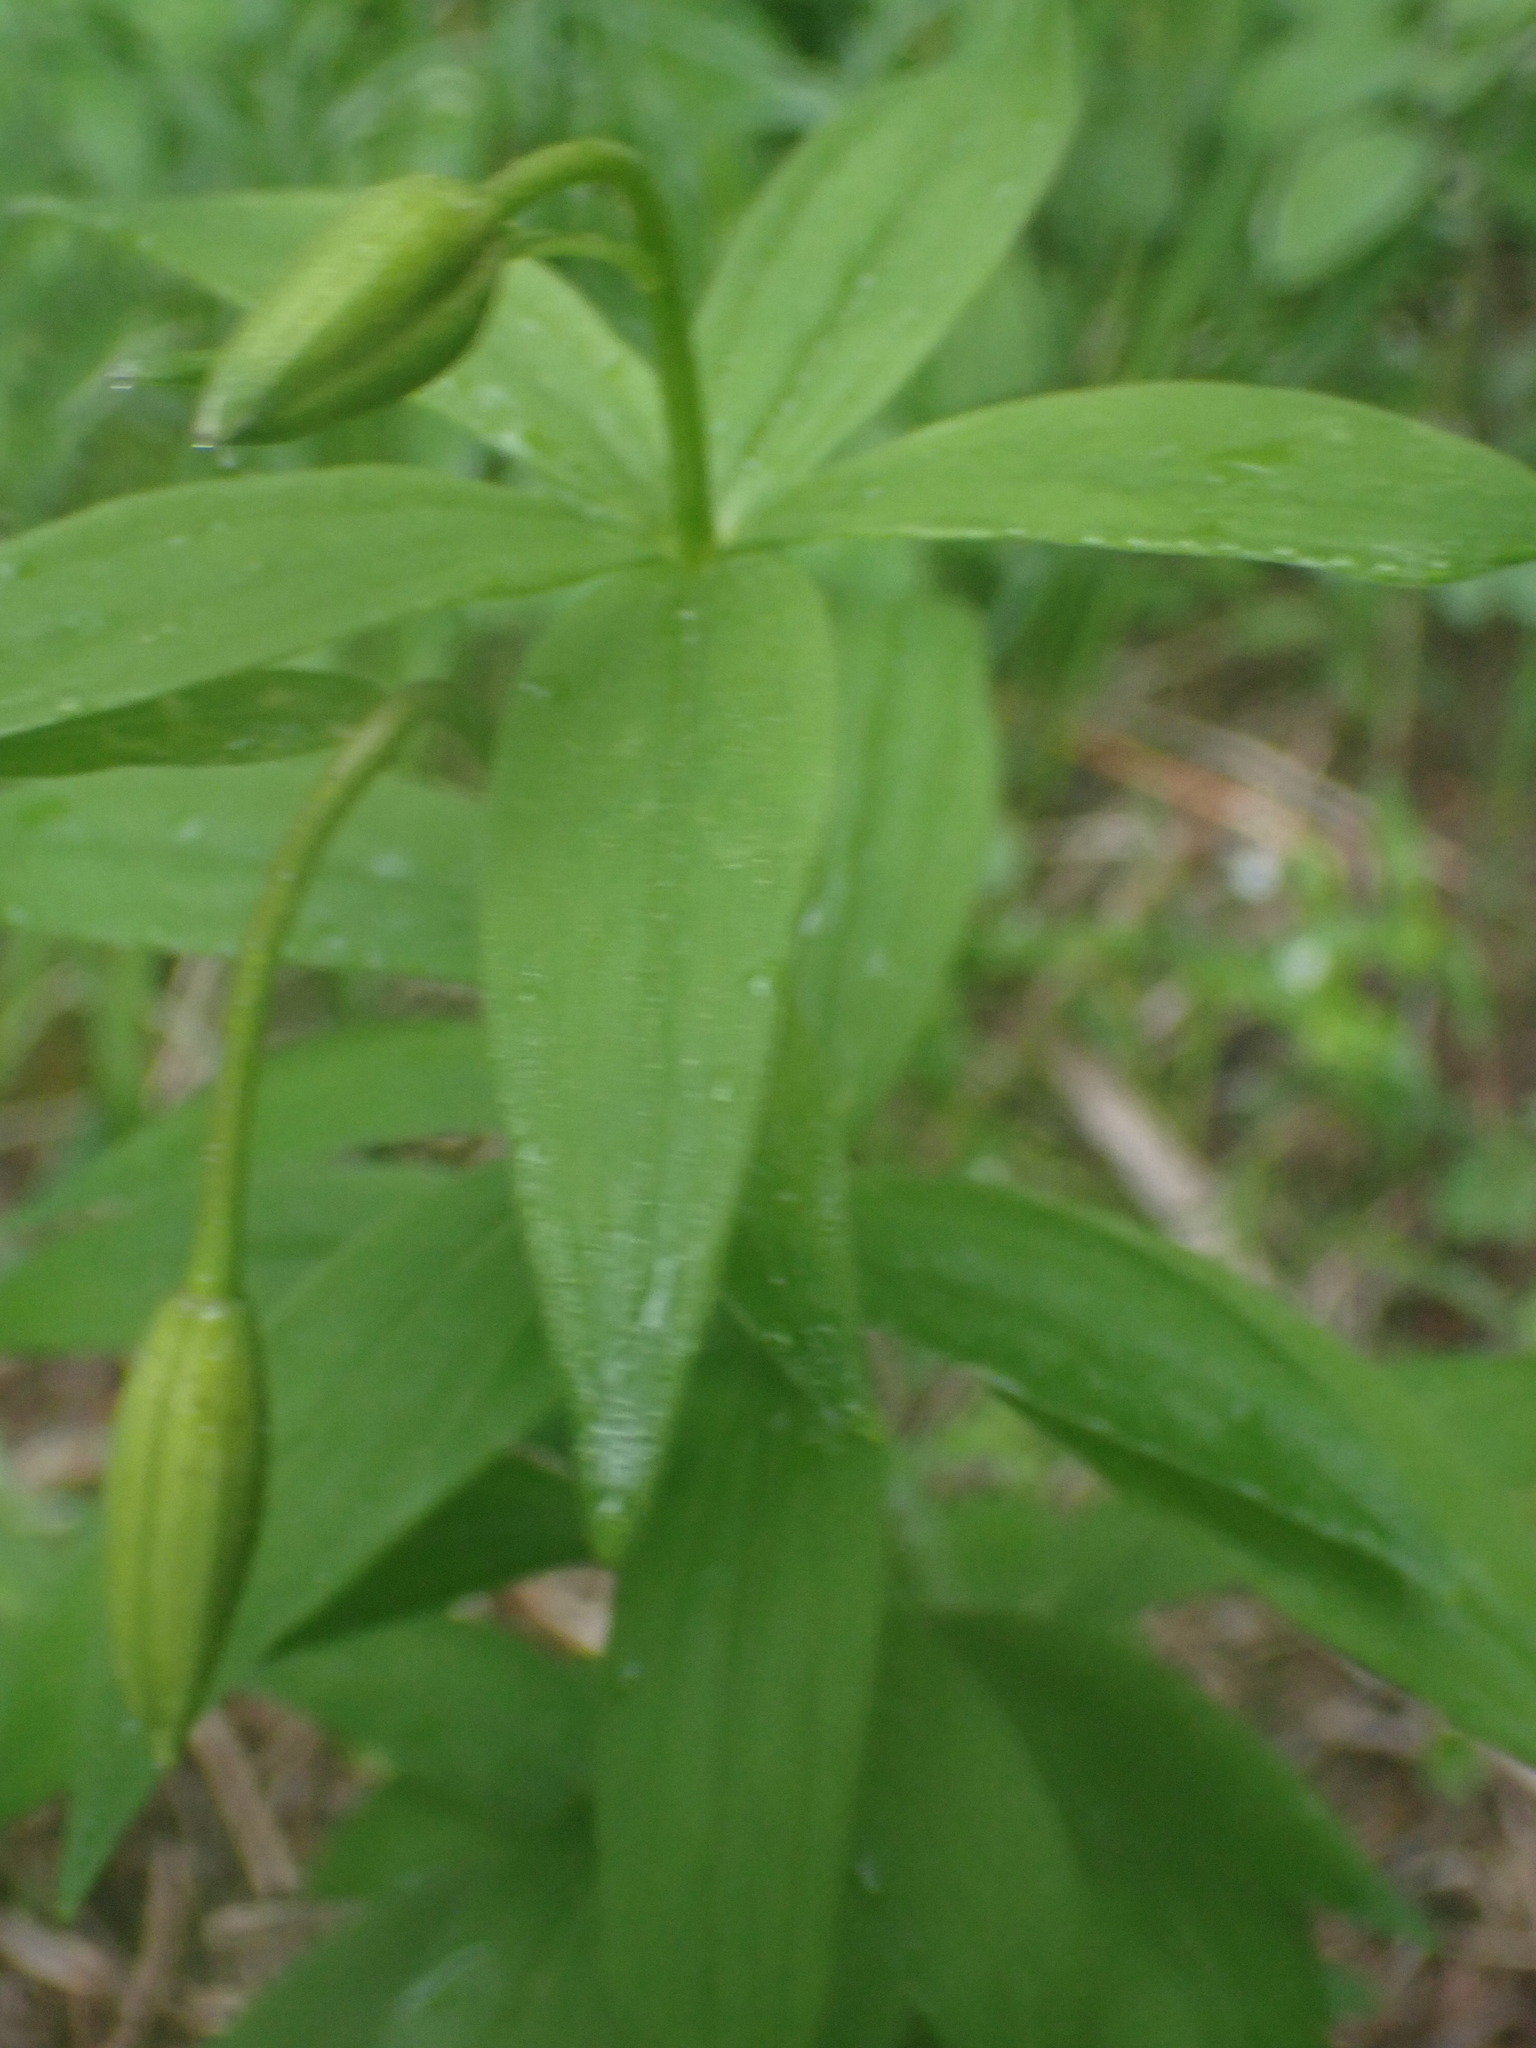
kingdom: Plantae
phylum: Tracheophyta
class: Liliopsida
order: Liliales
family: Liliaceae
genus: Lilium
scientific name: Lilium columbianum
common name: Columbia lily
